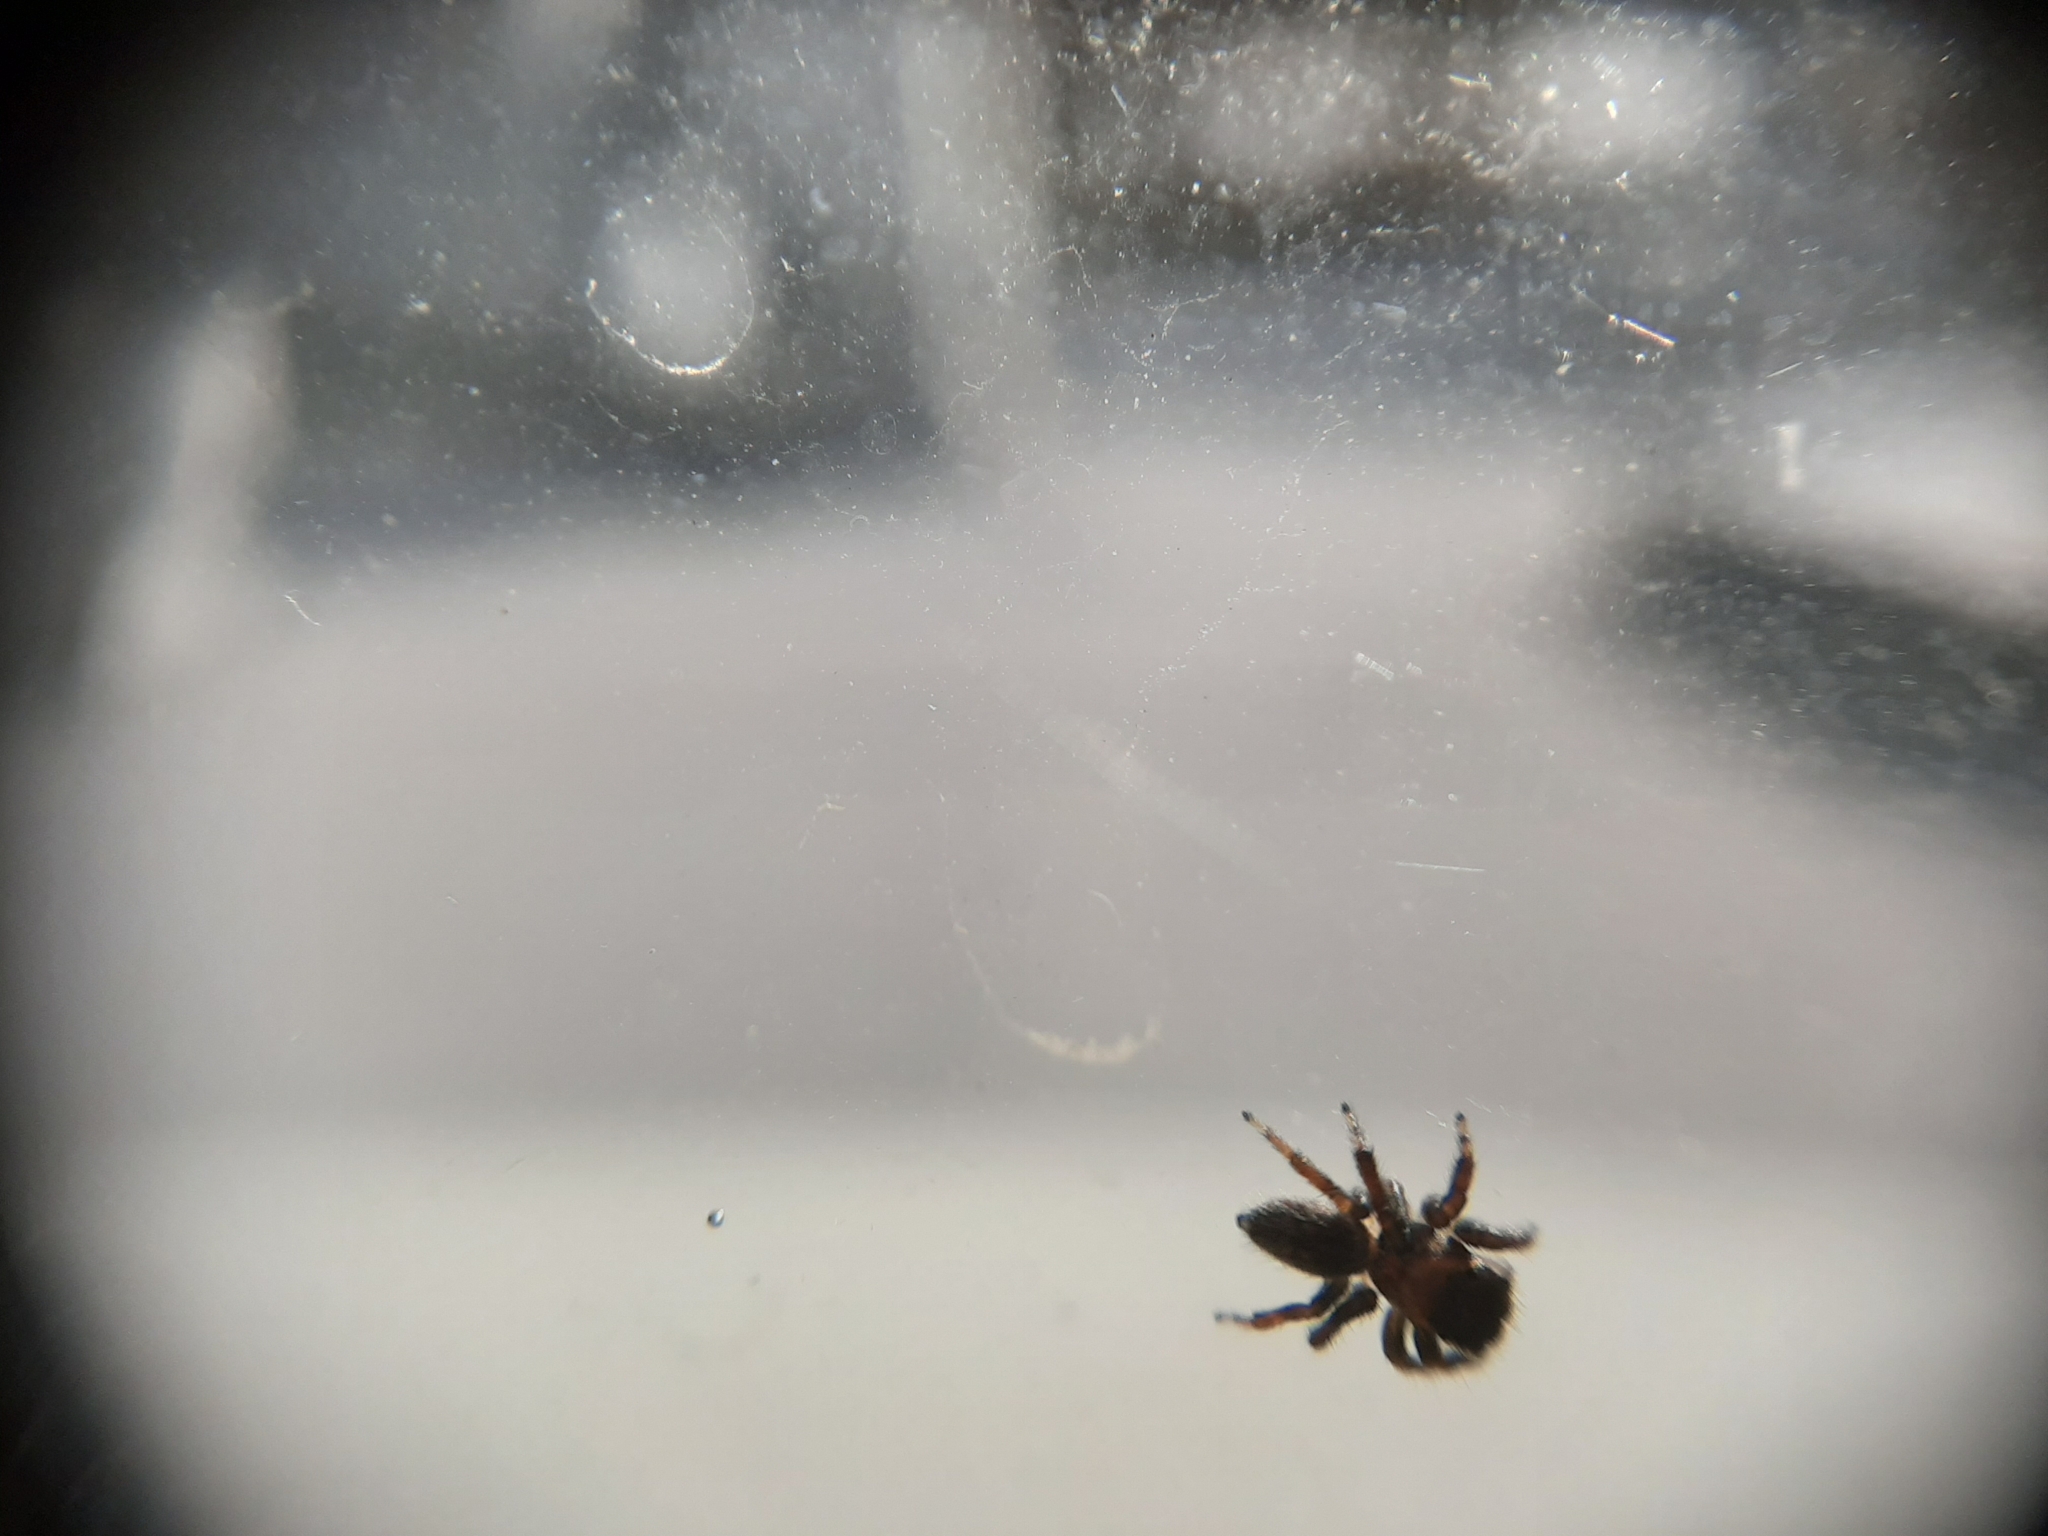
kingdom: Animalia
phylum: Arthropoda
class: Arachnida
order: Araneae
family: Salticidae
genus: Maratus
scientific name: Maratus griseus
